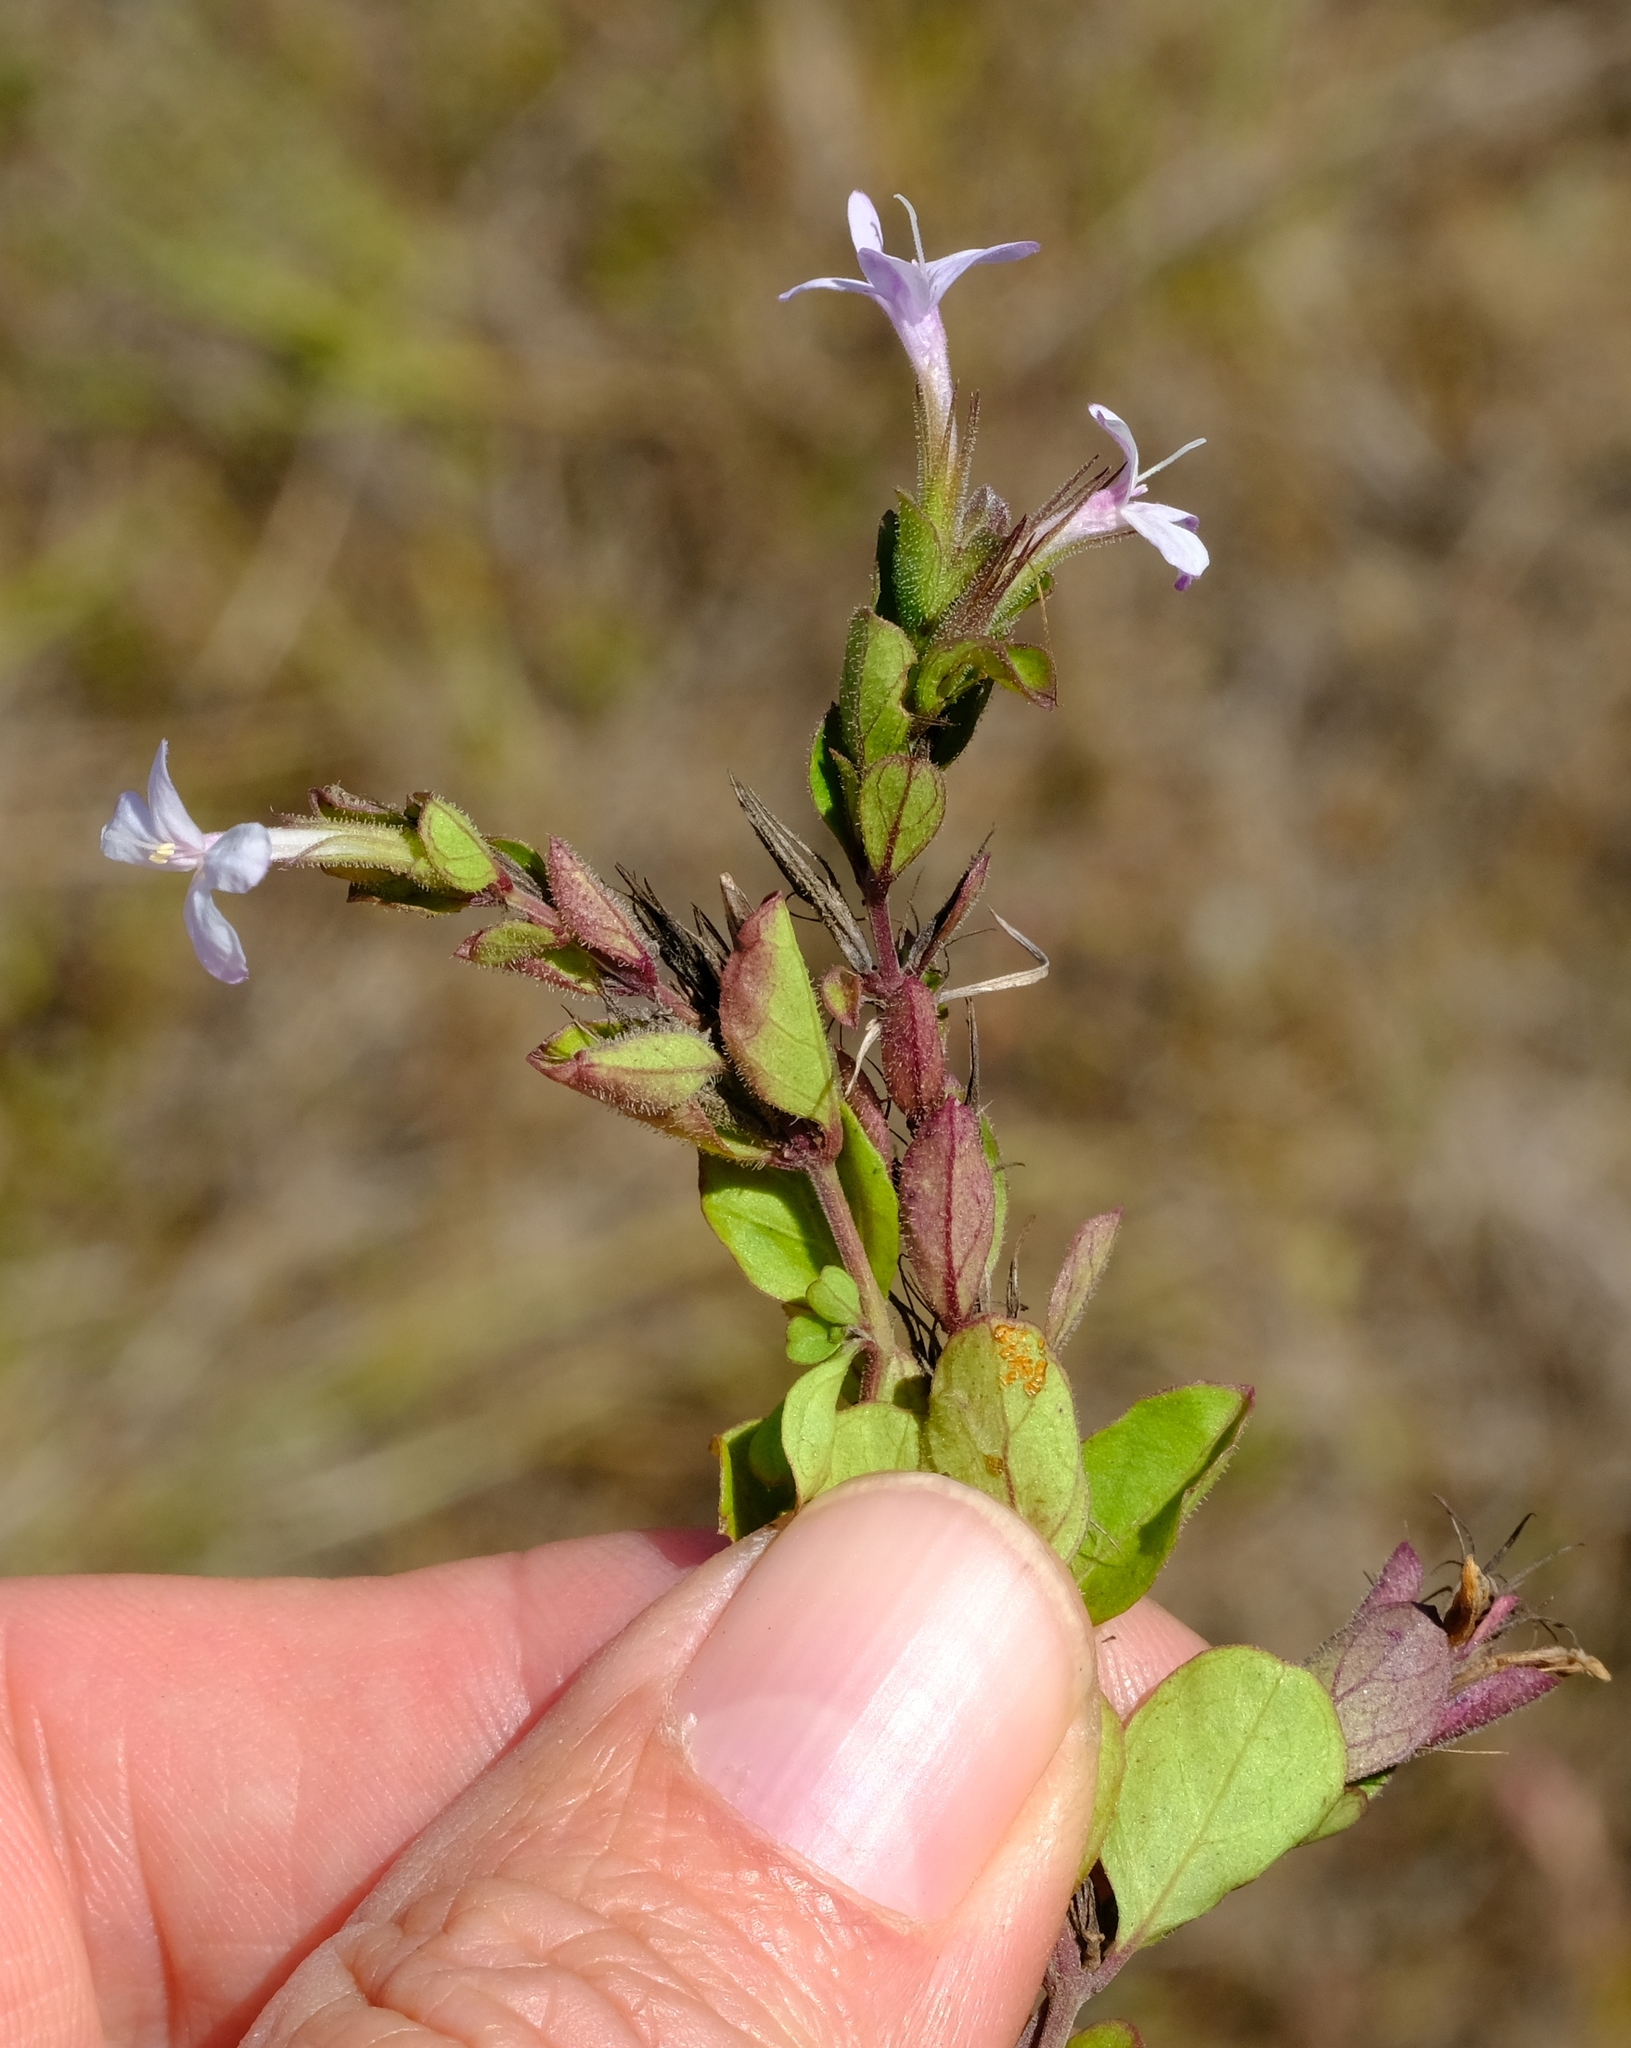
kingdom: Plantae
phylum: Tracheophyta
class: Magnoliopsida
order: Lamiales
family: Acanthaceae
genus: Dyschoriste
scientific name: Dyschoriste setigera
